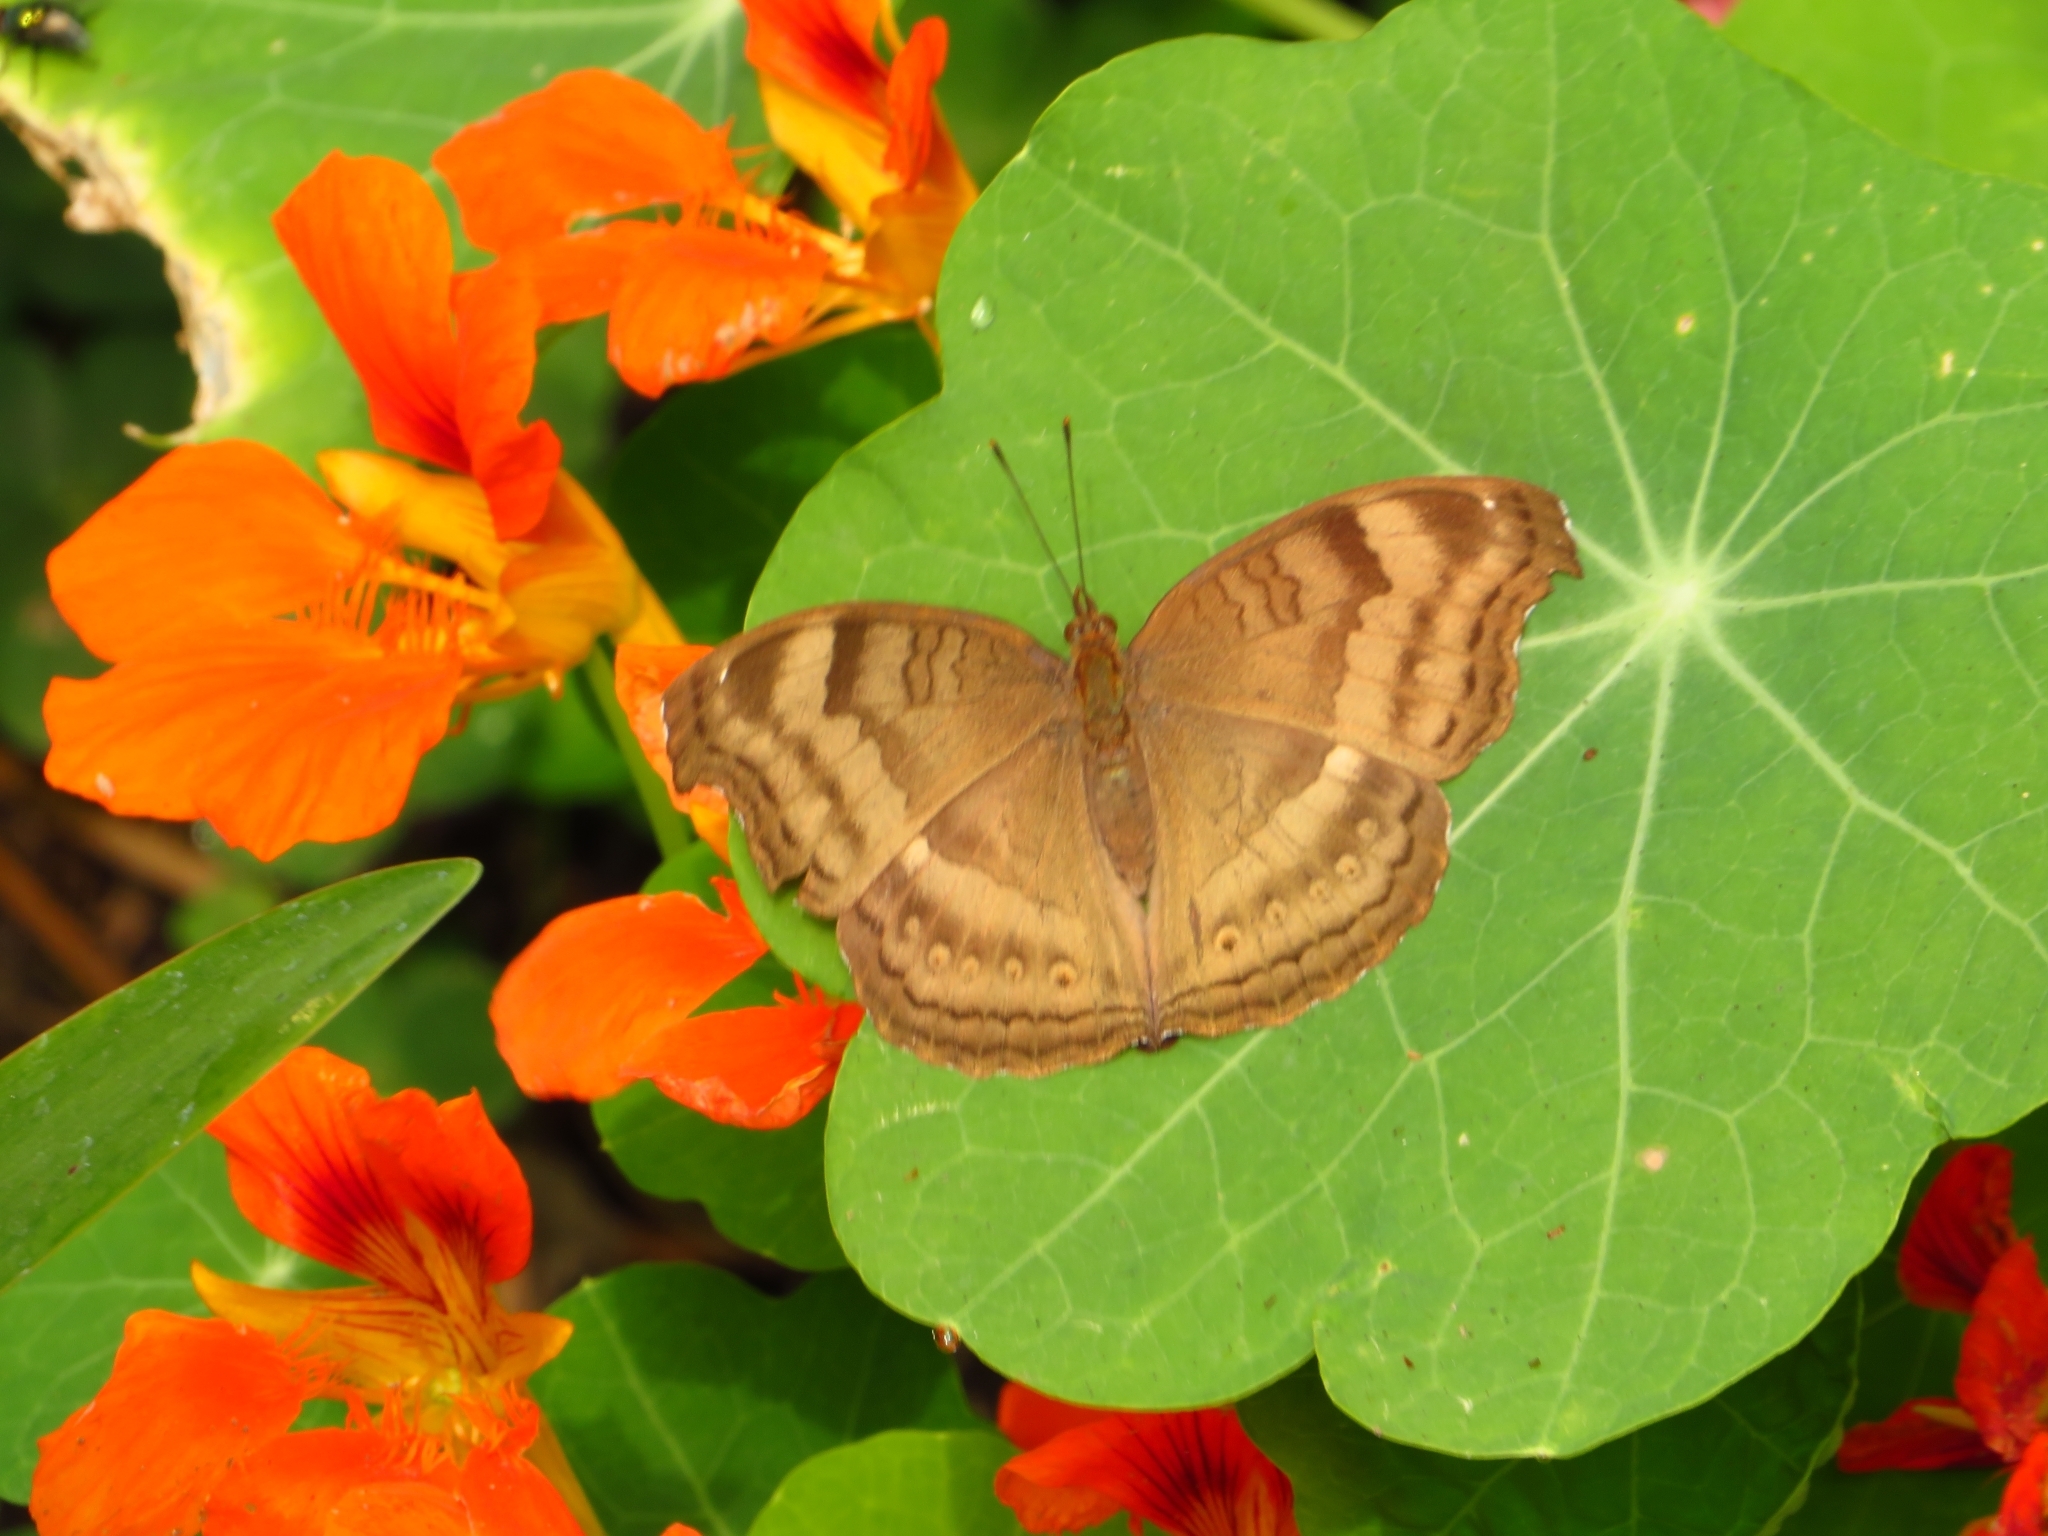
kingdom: Animalia
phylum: Arthropoda
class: Insecta
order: Lepidoptera
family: Nymphalidae
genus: Junonia
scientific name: Junonia iphita
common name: Chocolate pansy
